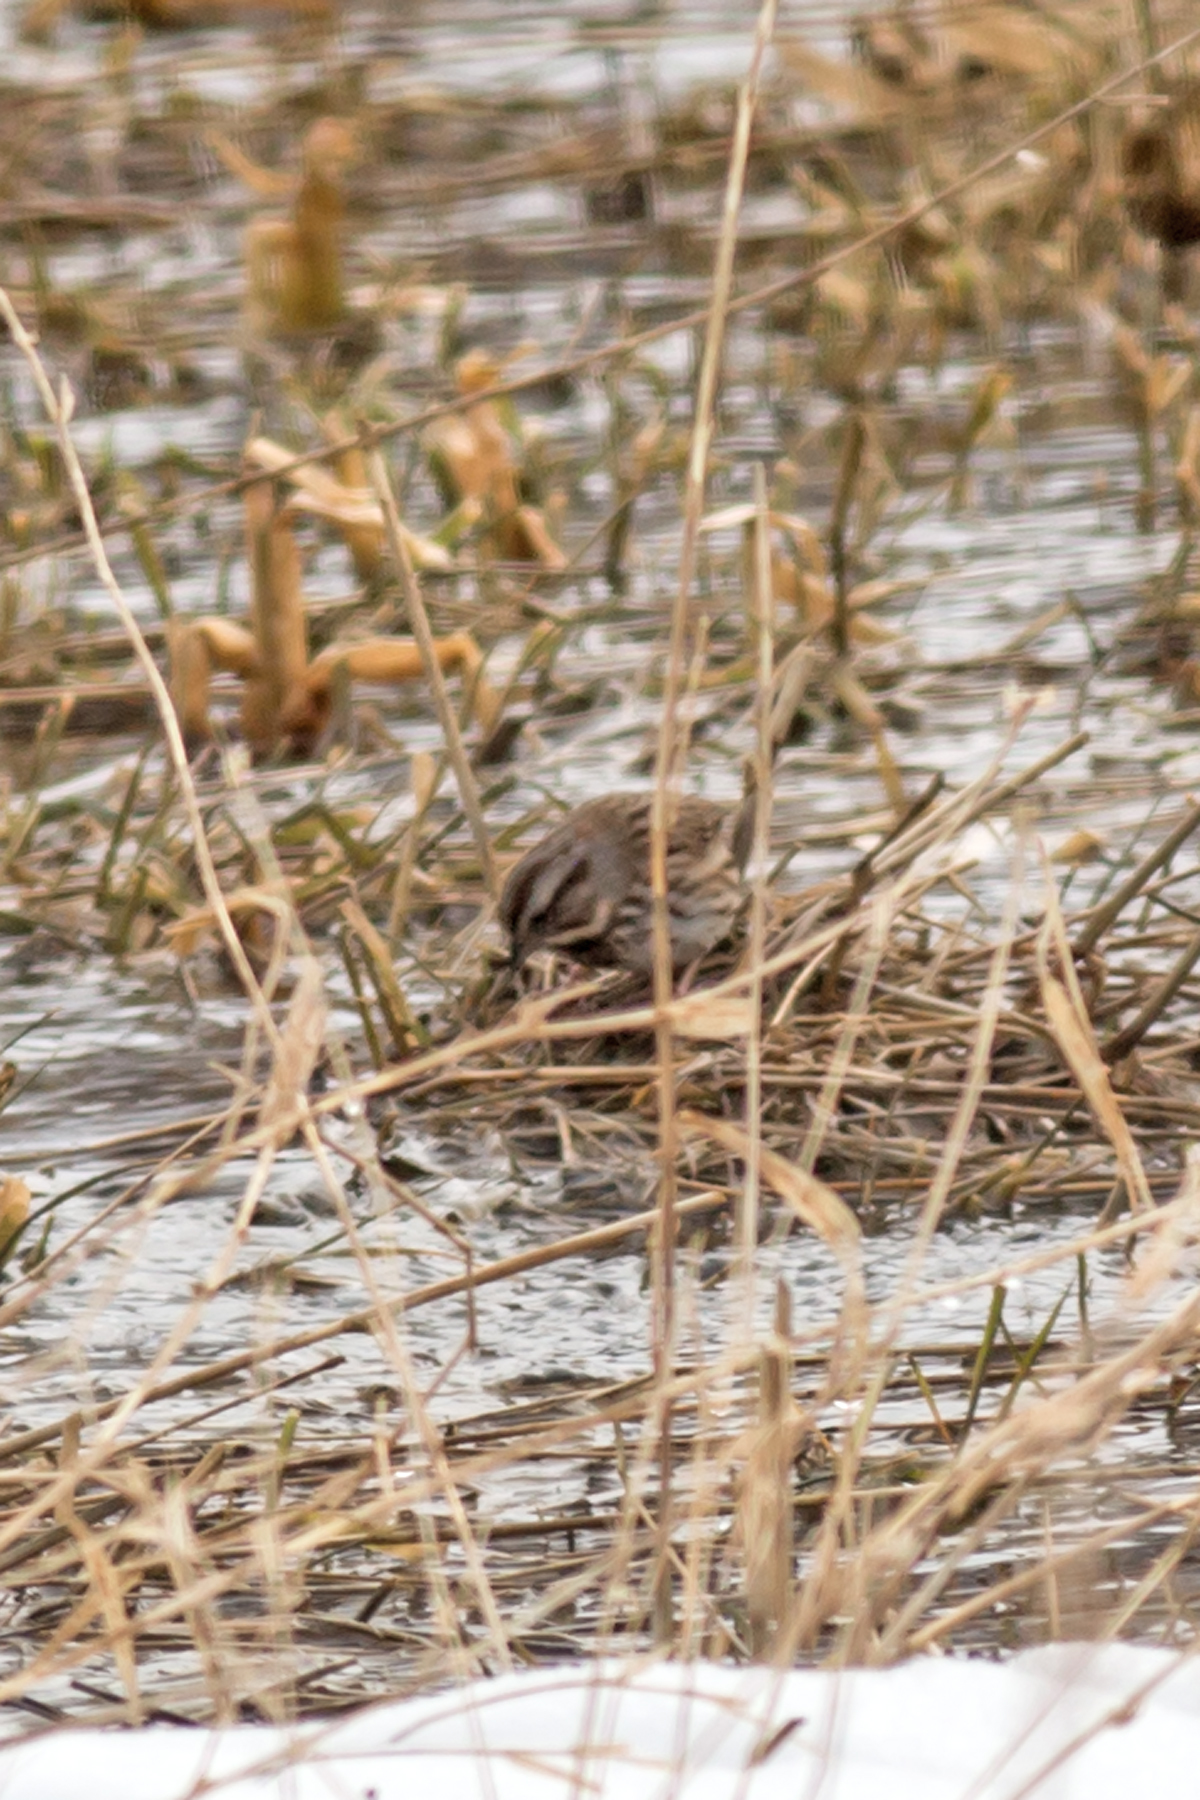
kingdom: Animalia
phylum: Chordata
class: Aves
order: Passeriformes
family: Passerellidae
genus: Melospiza
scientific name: Melospiza melodia
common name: Song sparrow
